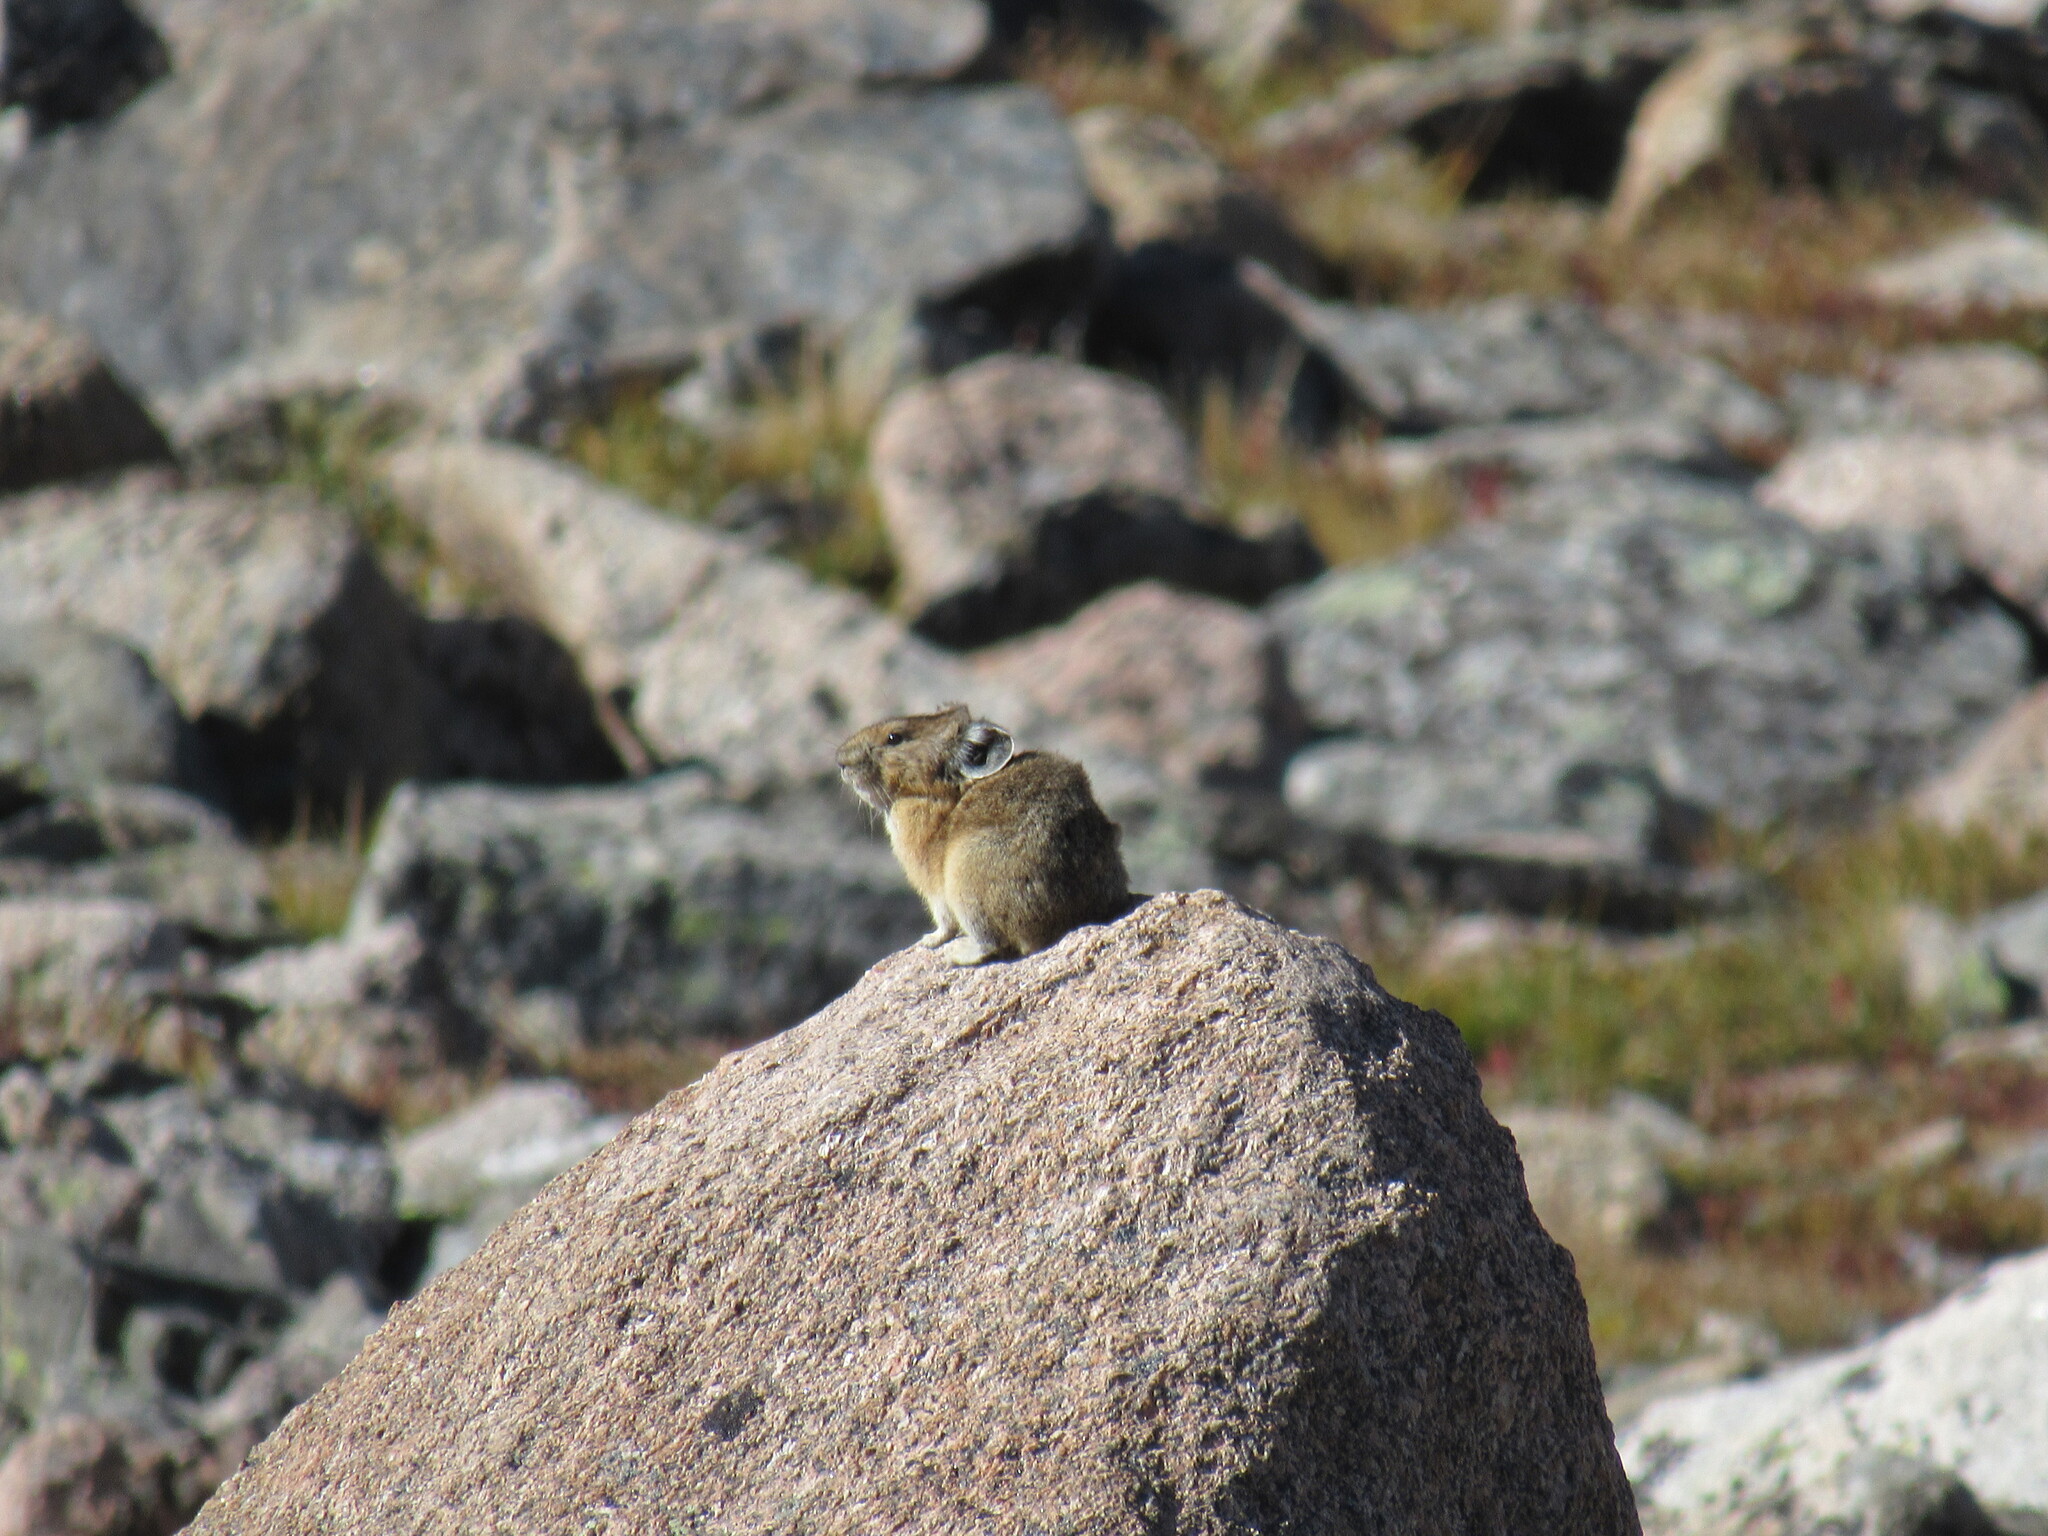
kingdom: Animalia
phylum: Chordata
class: Mammalia
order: Lagomorpha
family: Ochotonidae
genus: Ochotona
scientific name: Ochotona princeps
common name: American pika
